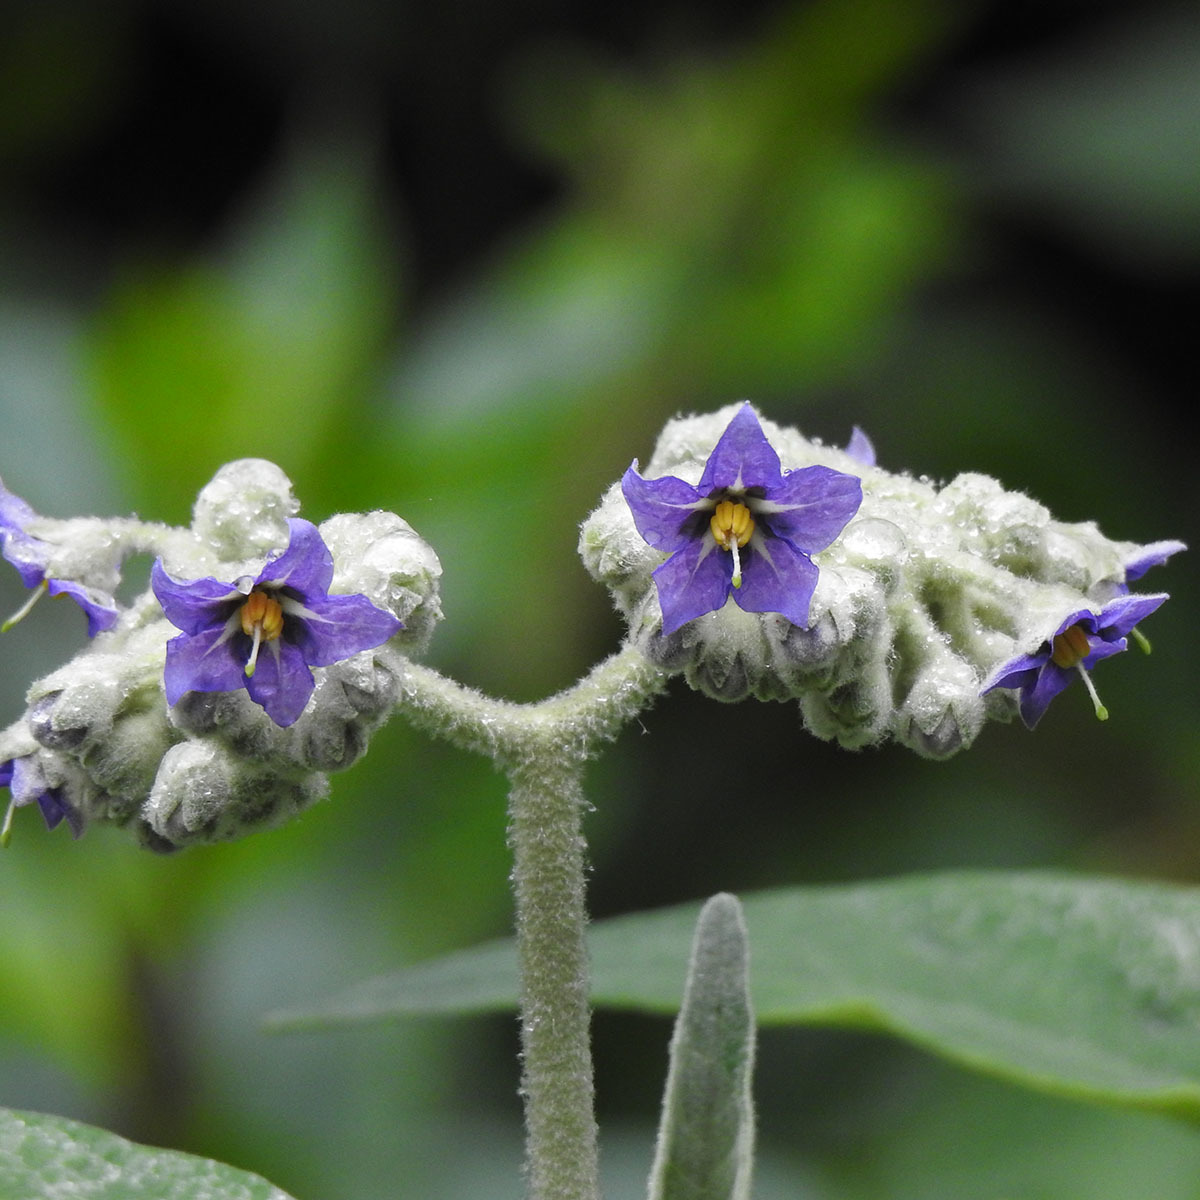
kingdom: Plantae
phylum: Tracheophyta
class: Magnoliopsida
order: Solanales
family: Solanaceae
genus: Solanum
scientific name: Solanum mauritianum
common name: Earleaf nightshade
